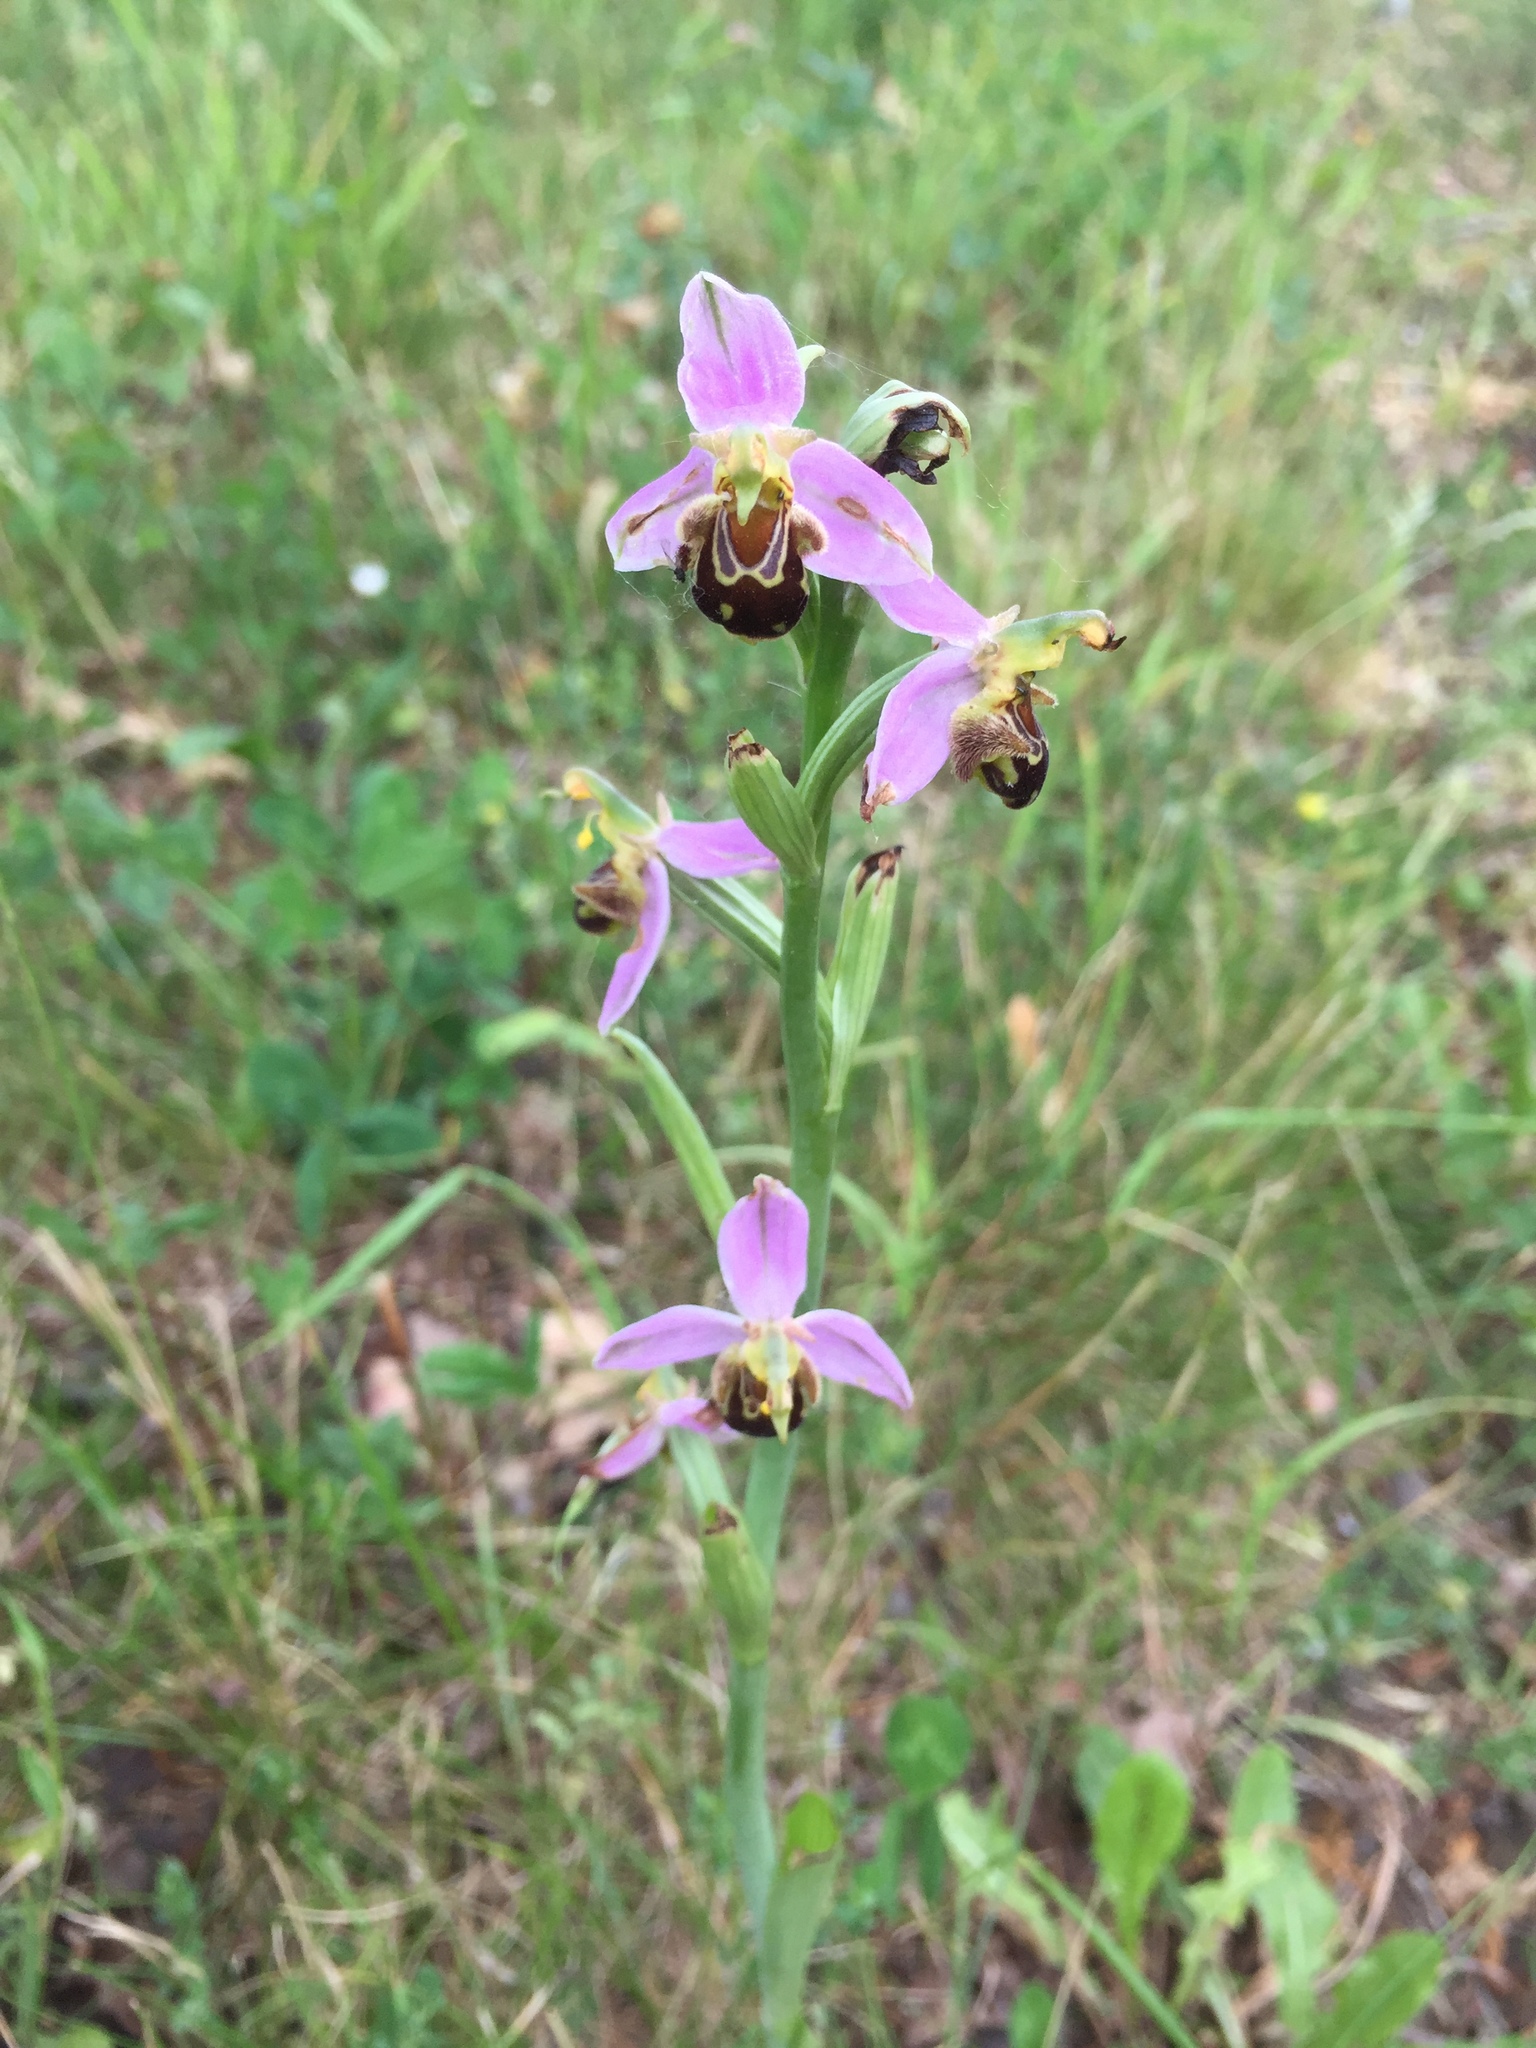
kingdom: Plantae
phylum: Tracheophyta
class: Liliopsida
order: Asparagales
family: Orchidaceae
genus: Ophrys
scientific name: Ophrys apifera
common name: Bee orchid
